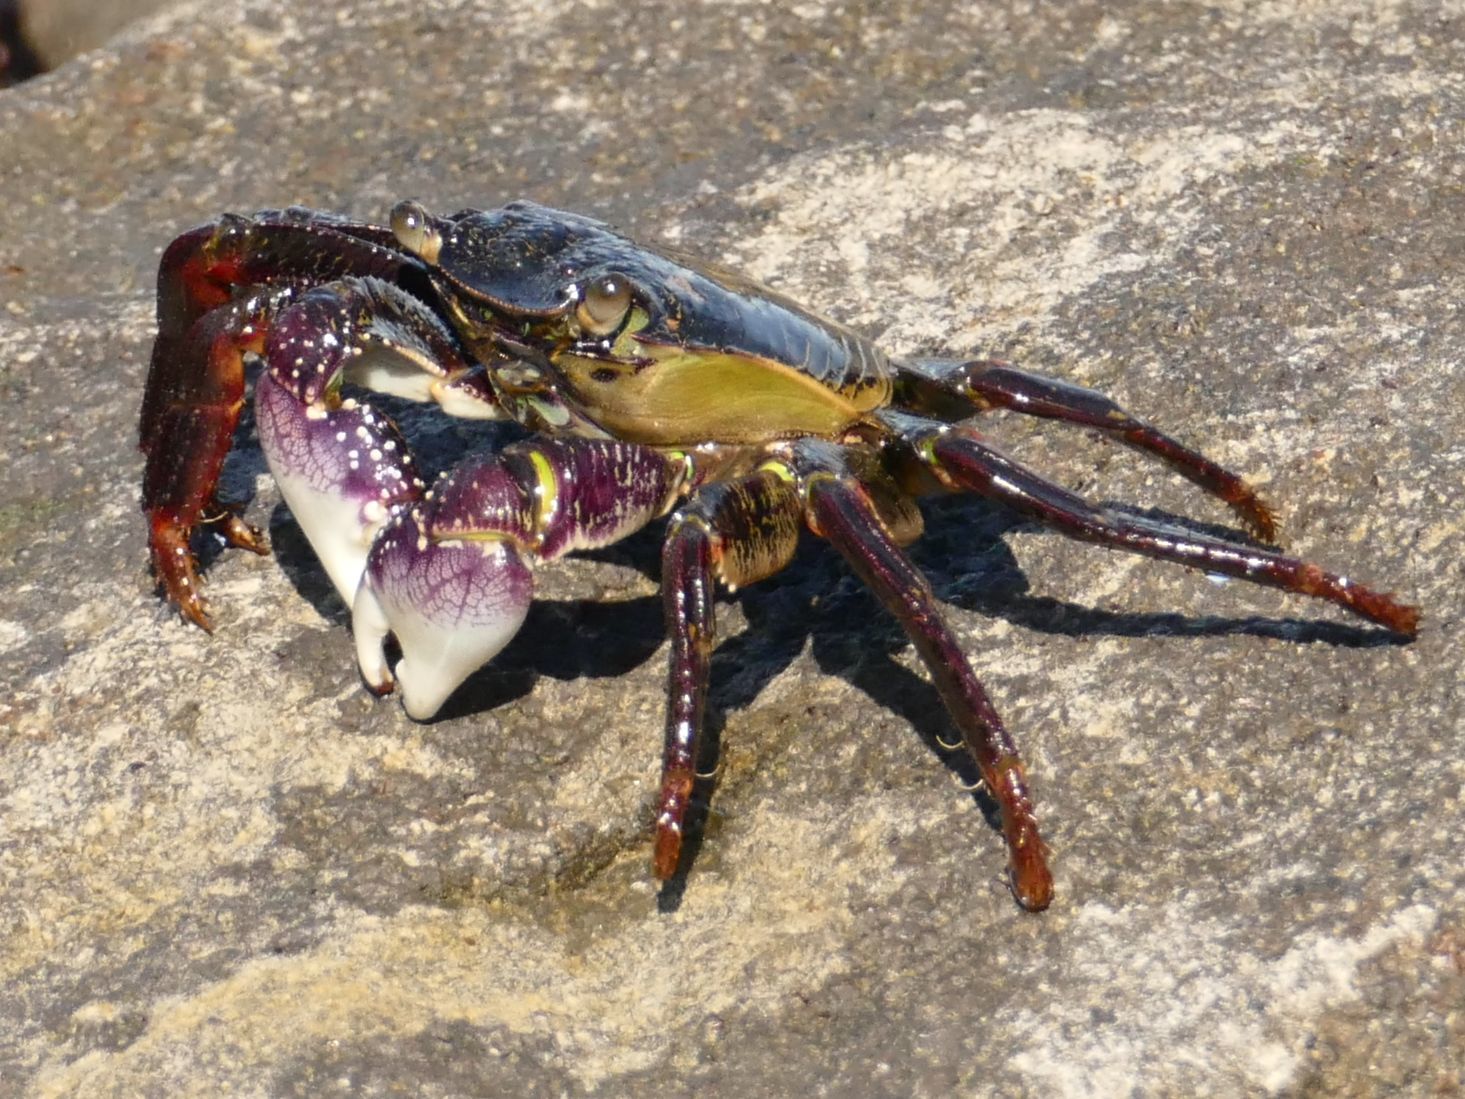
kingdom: Animalia
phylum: Arthropoda
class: Malacostraca
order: Decapoda
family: Grapsidae
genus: Leptograpsus
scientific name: Leptograpsus variegatus
